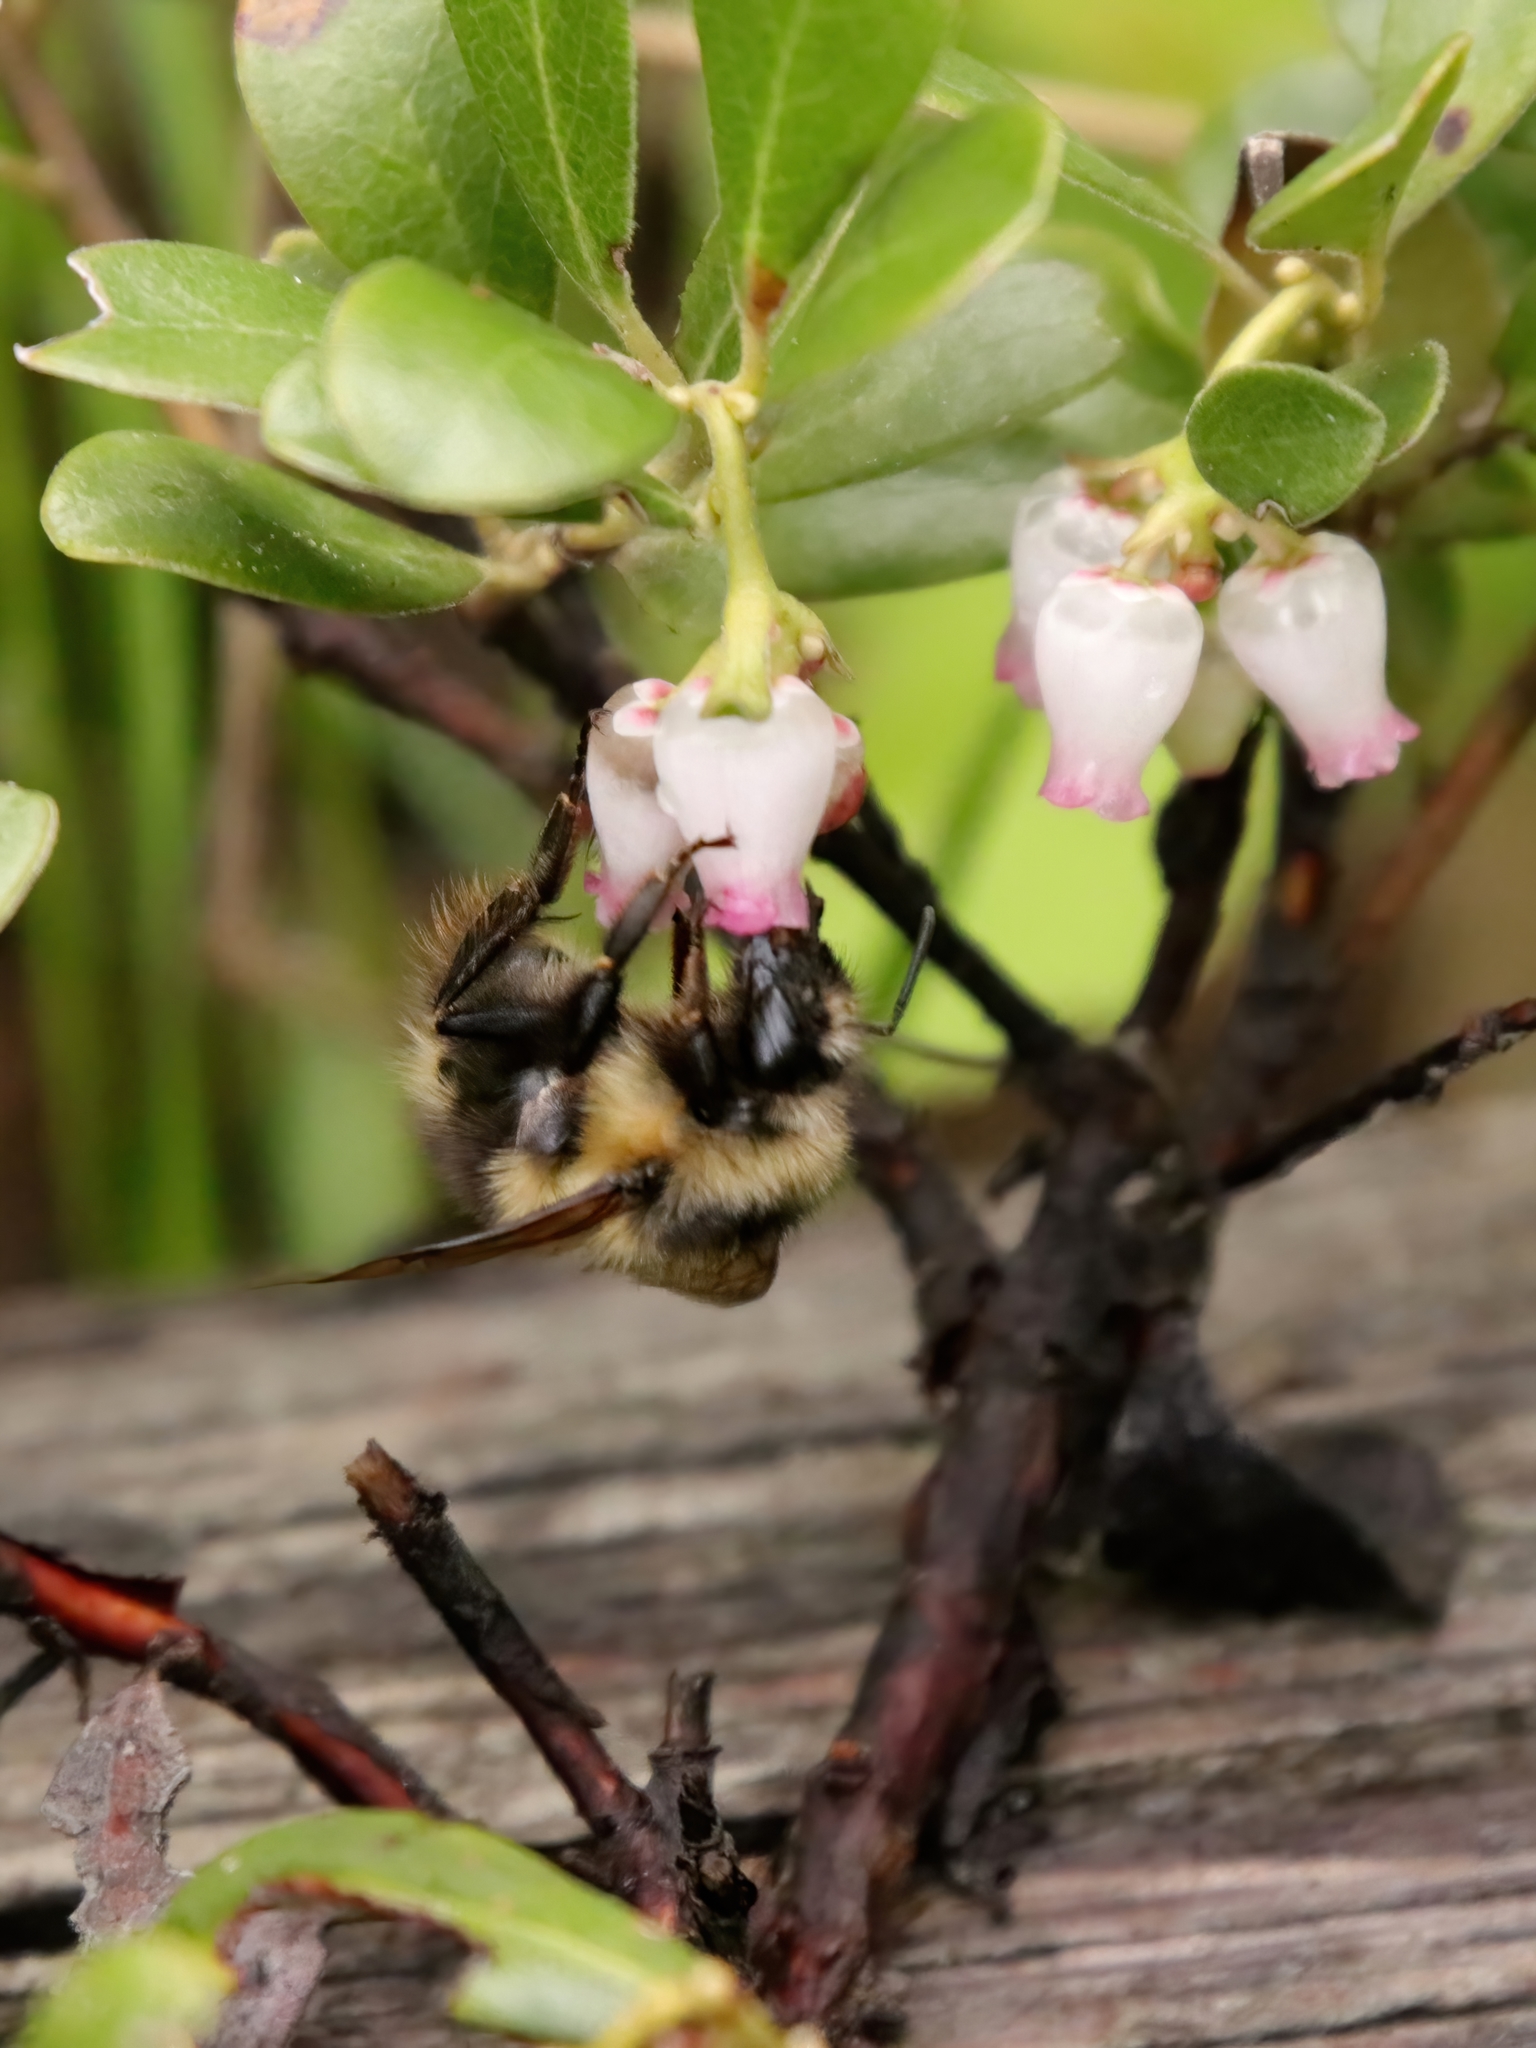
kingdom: Animalia
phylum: Arthropoda
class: Insecta
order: Hymenoptera
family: Apidae
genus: Bombus
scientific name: Bombus mixtus
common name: Fuzzy-horned bumble bee
